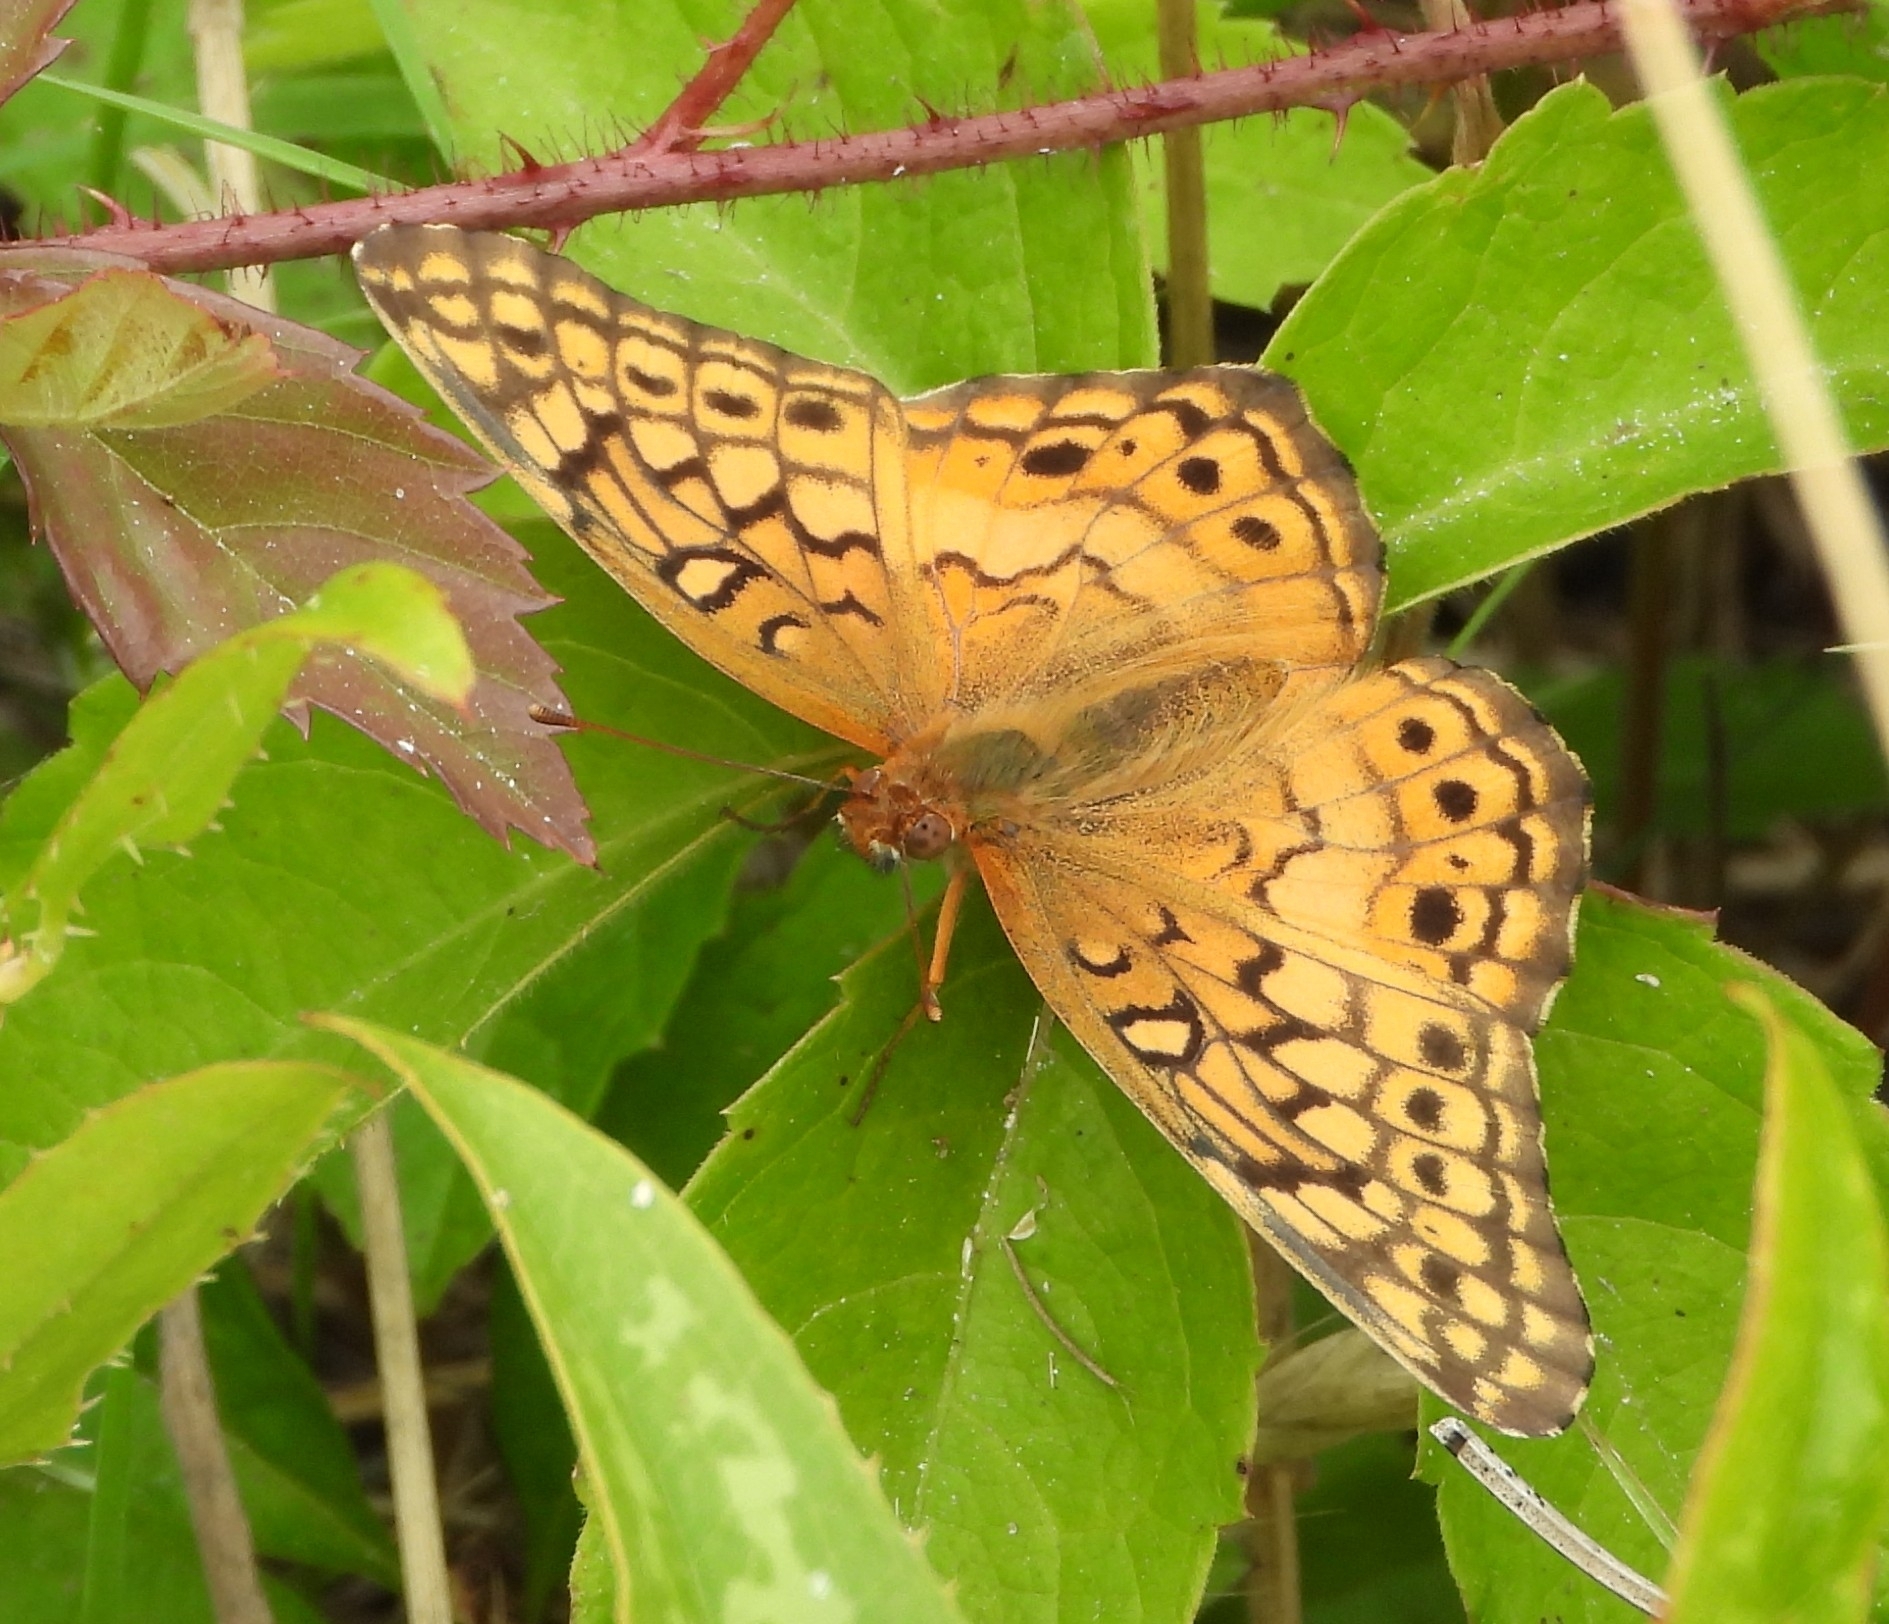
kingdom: Animalia
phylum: Arthropoda
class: Insecta
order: Lepidoptera
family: Nymphalidae
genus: Euptoieta
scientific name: Euptoieta claudia
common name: Variegated fritillary
